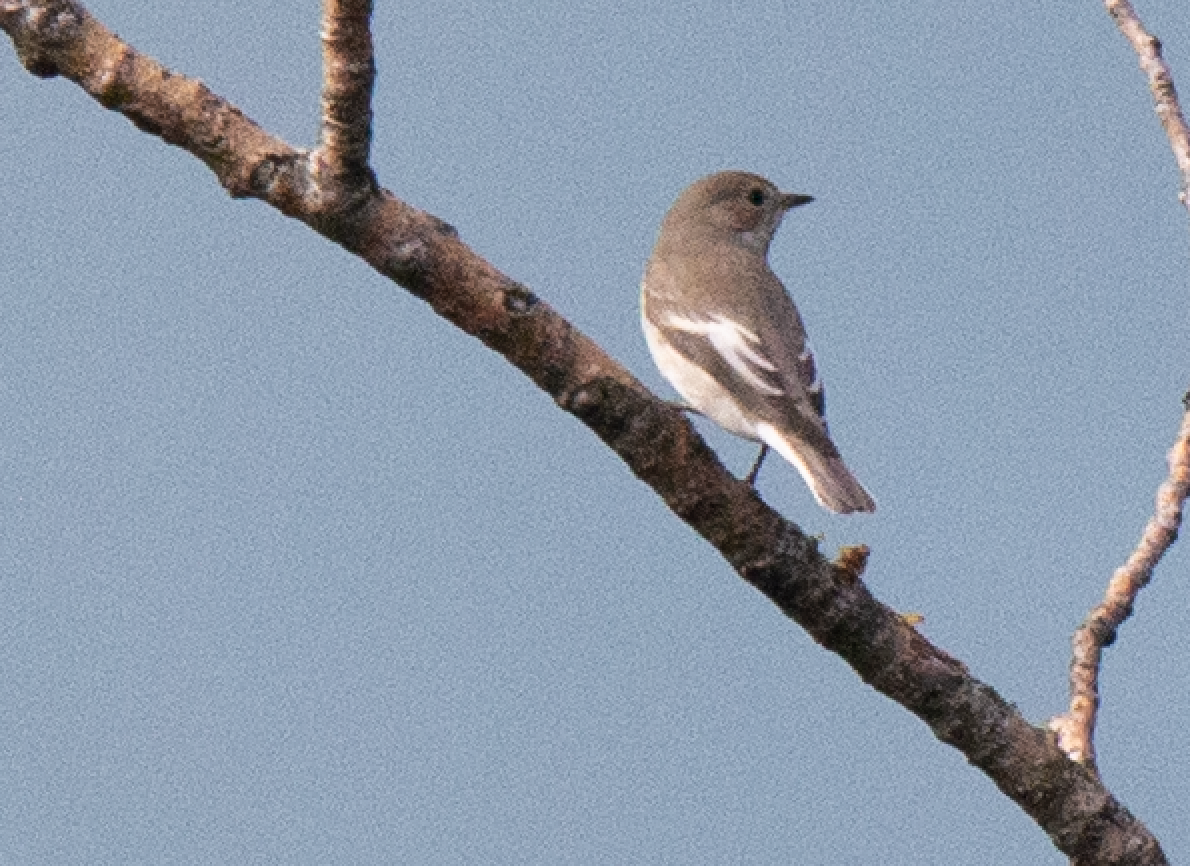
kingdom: Animalia
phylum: Chordata
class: Aves
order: Passeriformes
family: Muscicapidae
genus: Ficedula
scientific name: Ficedula hypoleuca
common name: European pied flycatcher
